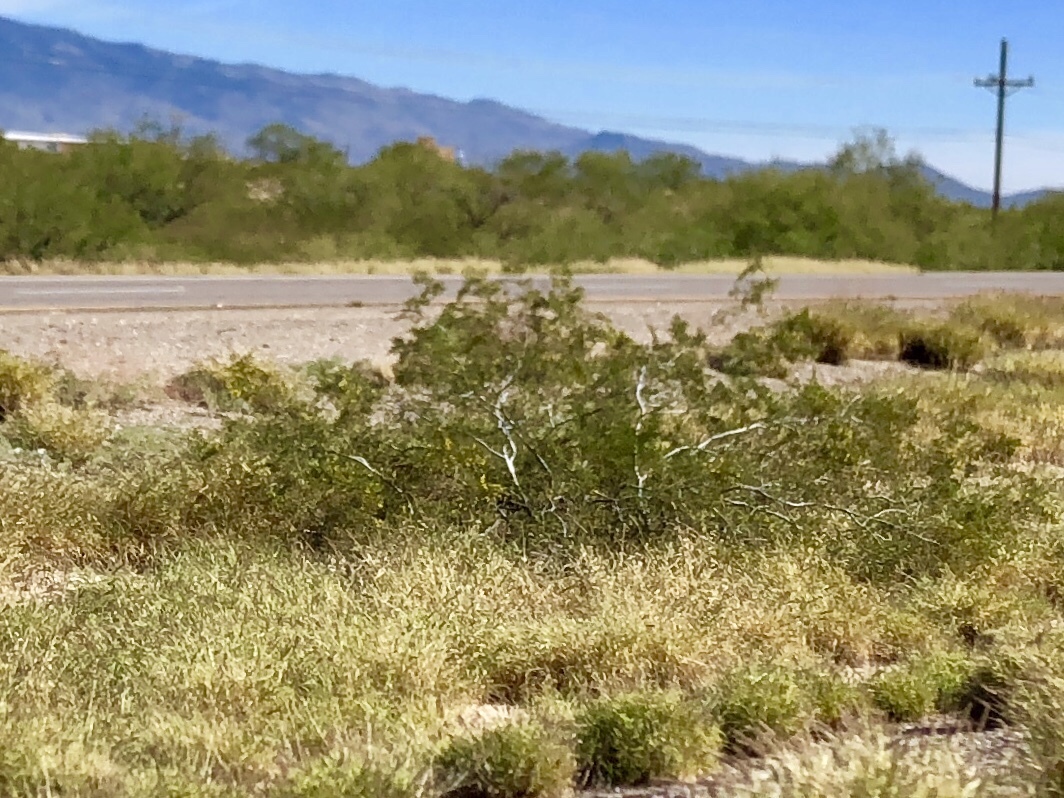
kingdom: Plantae
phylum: Tracheophyta
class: Magnoliopsida
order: Zygophyllales
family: Zygophyllaceae
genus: Larrea
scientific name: Larrea tridentata
